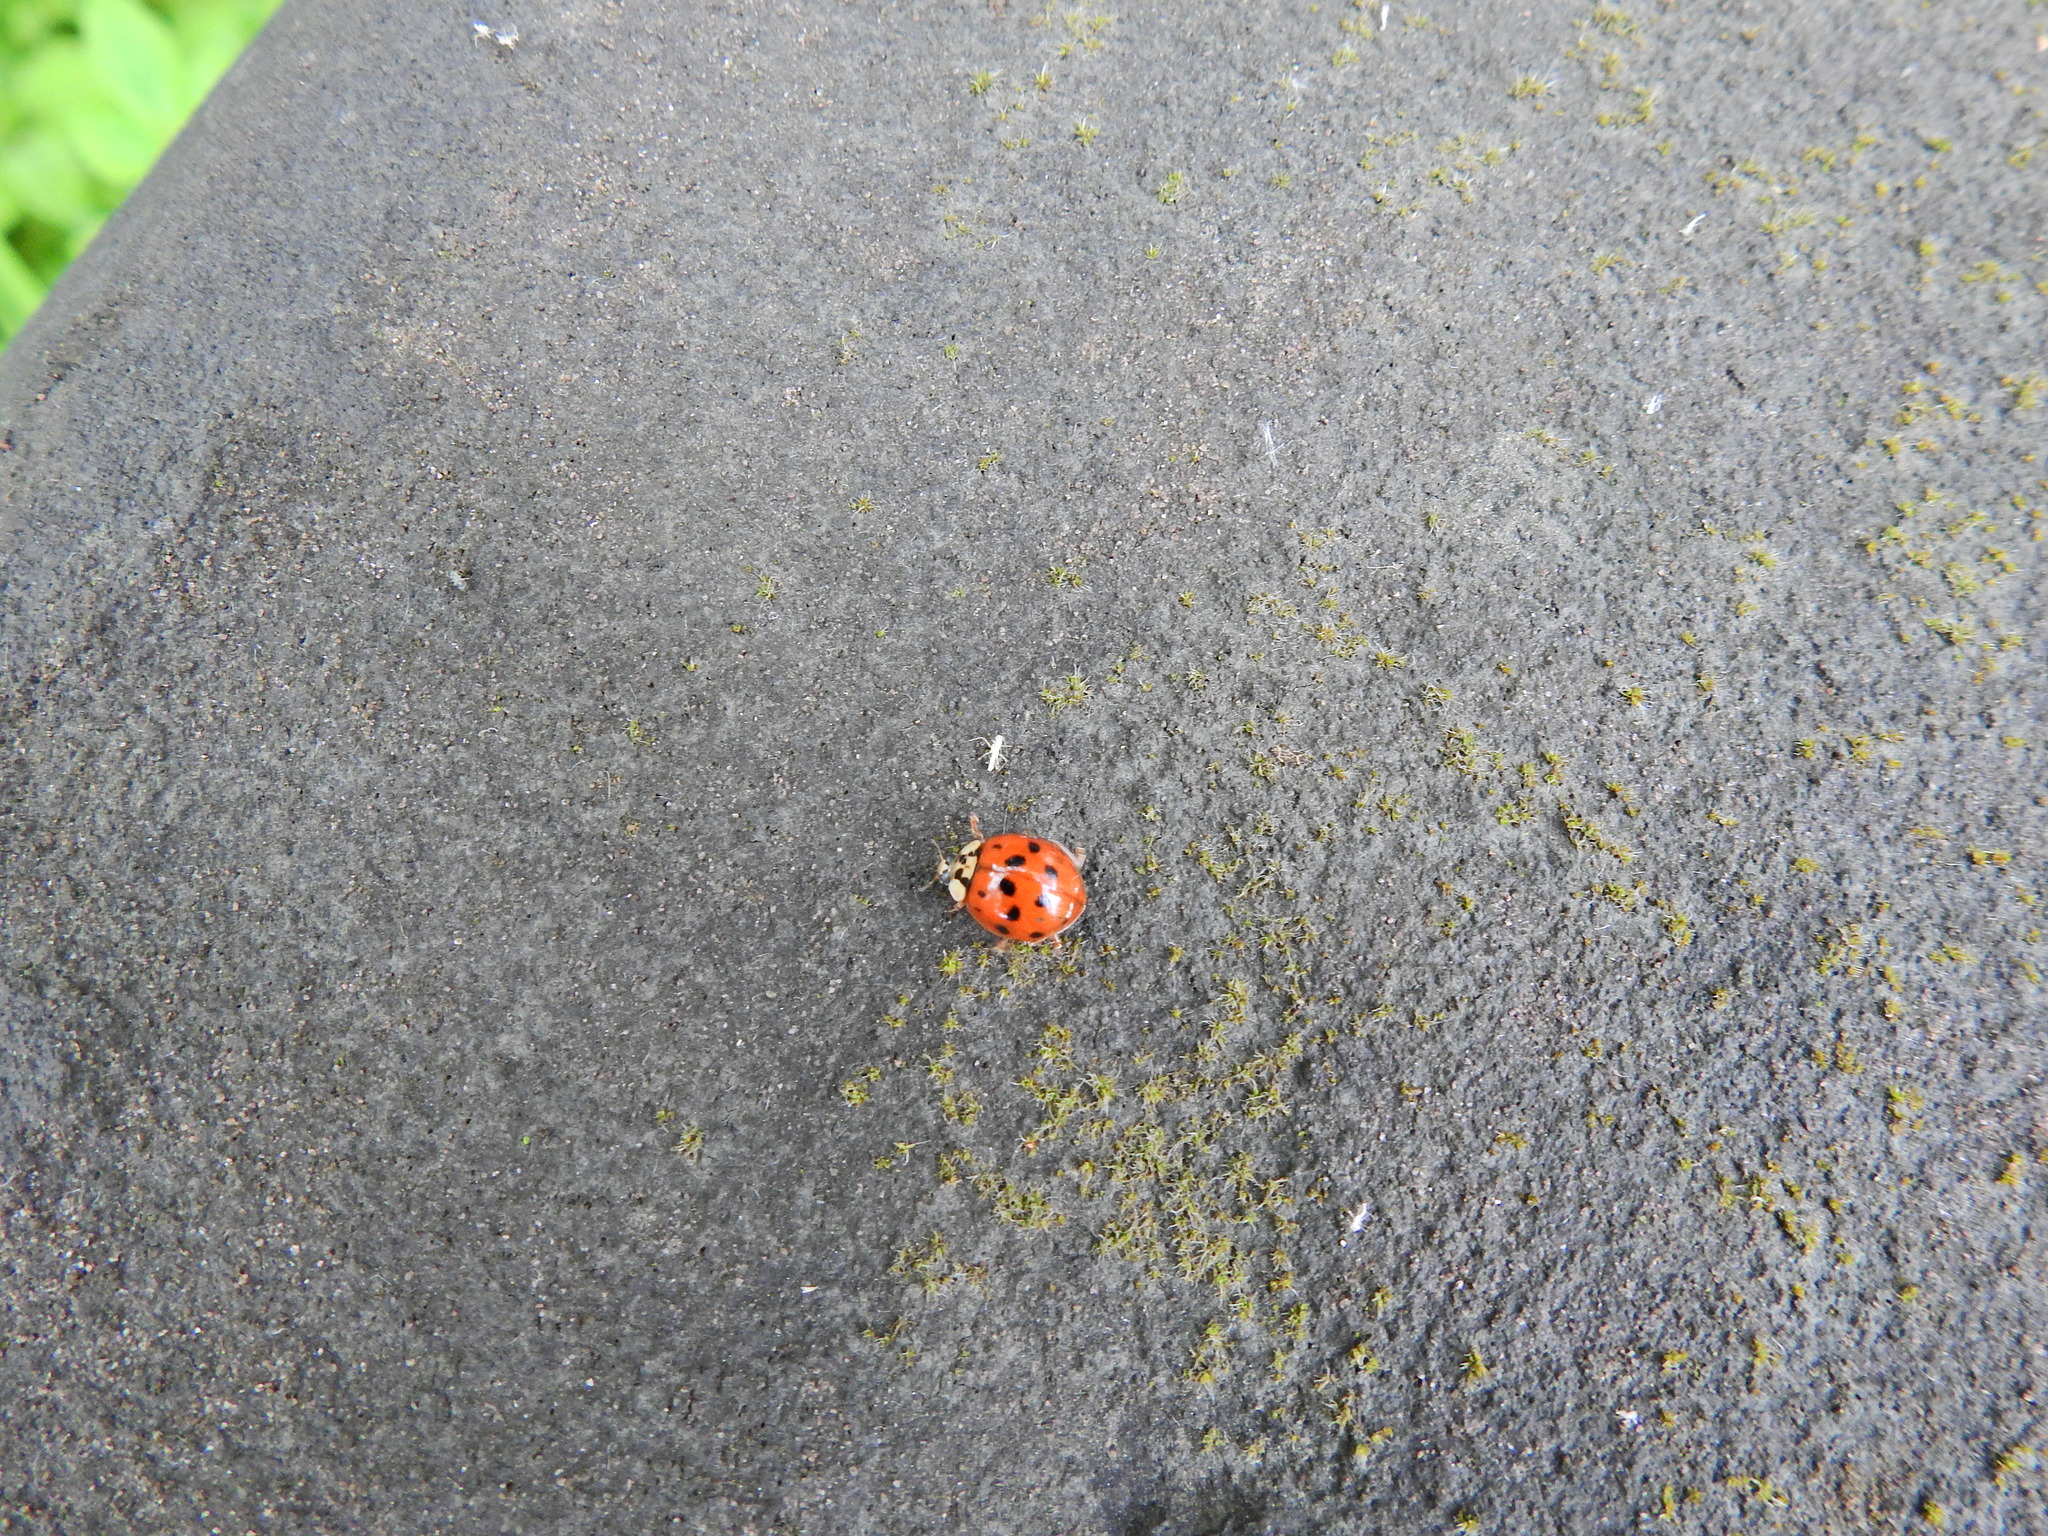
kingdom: Animalia
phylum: Arthropoda
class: Insecta
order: Coleoptera
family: Coccinellidae
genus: Harmonia
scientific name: Harmonia axyridis
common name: Harlequin ladybird
